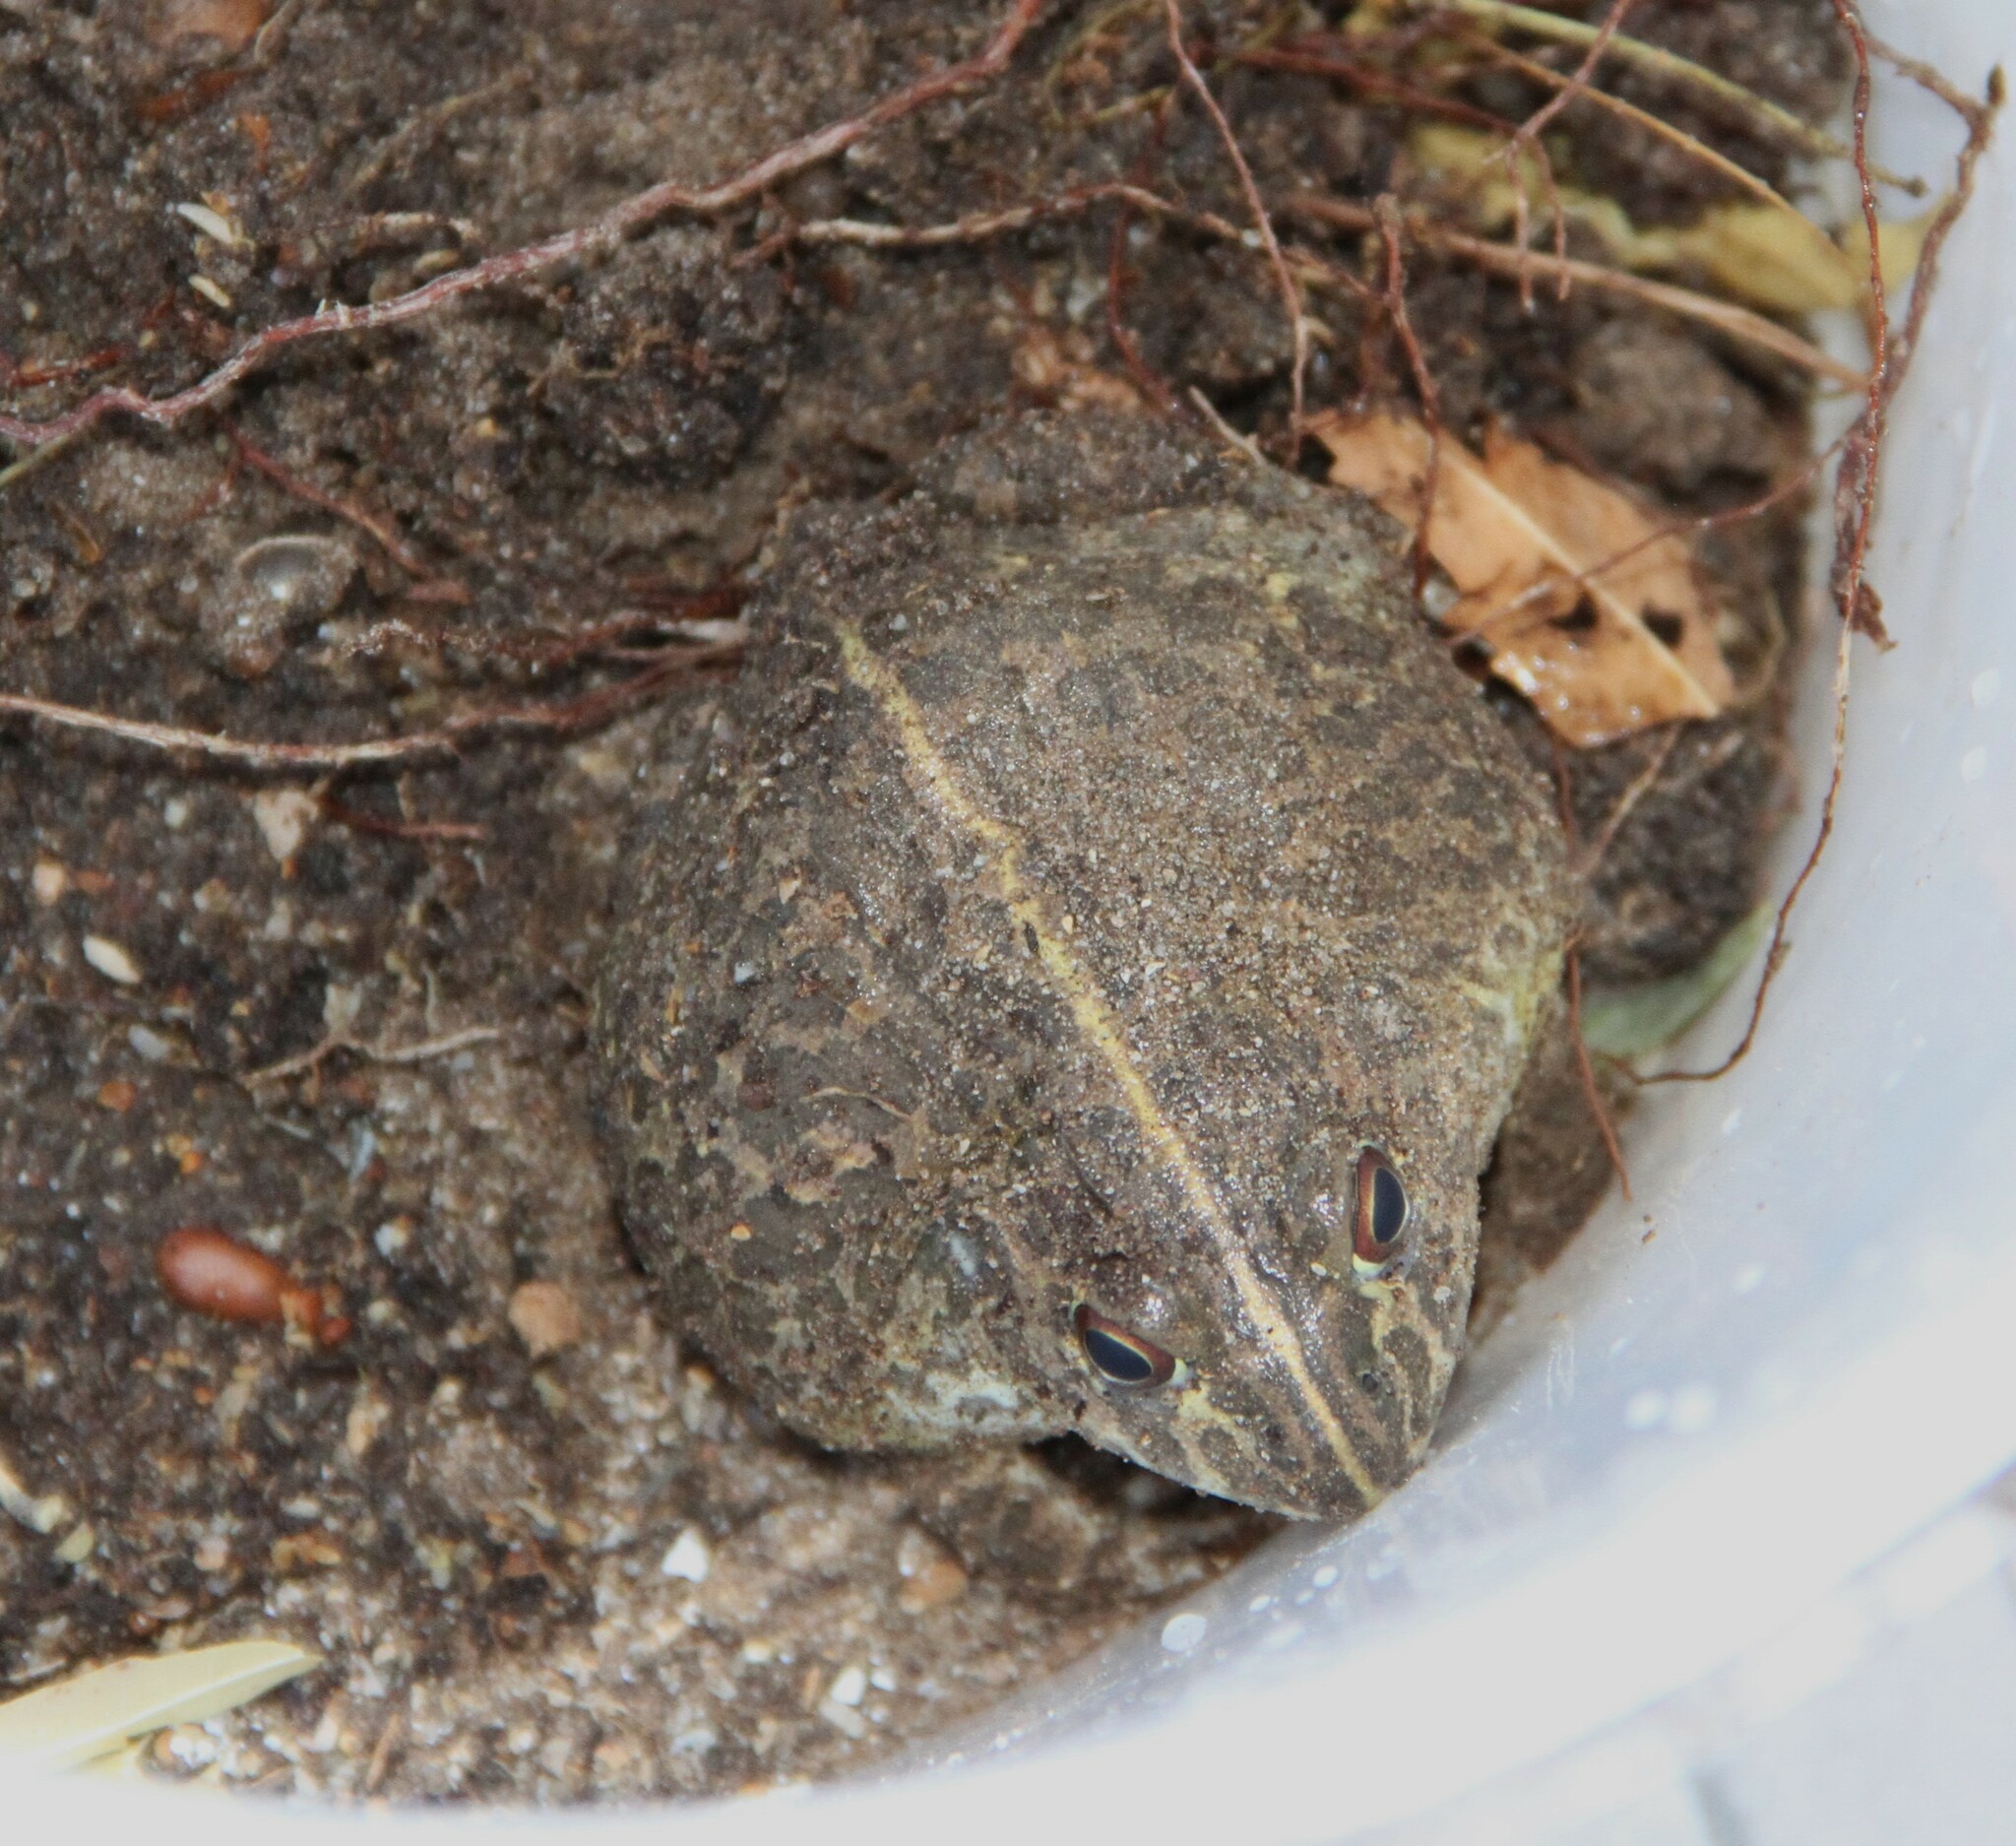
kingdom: Animalia
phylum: Chordata
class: Amphibia
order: Anura
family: Pyxicephalidae
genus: Pyxicephalus
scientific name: Pyxicephalus edulis
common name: Peter's bullfrog
